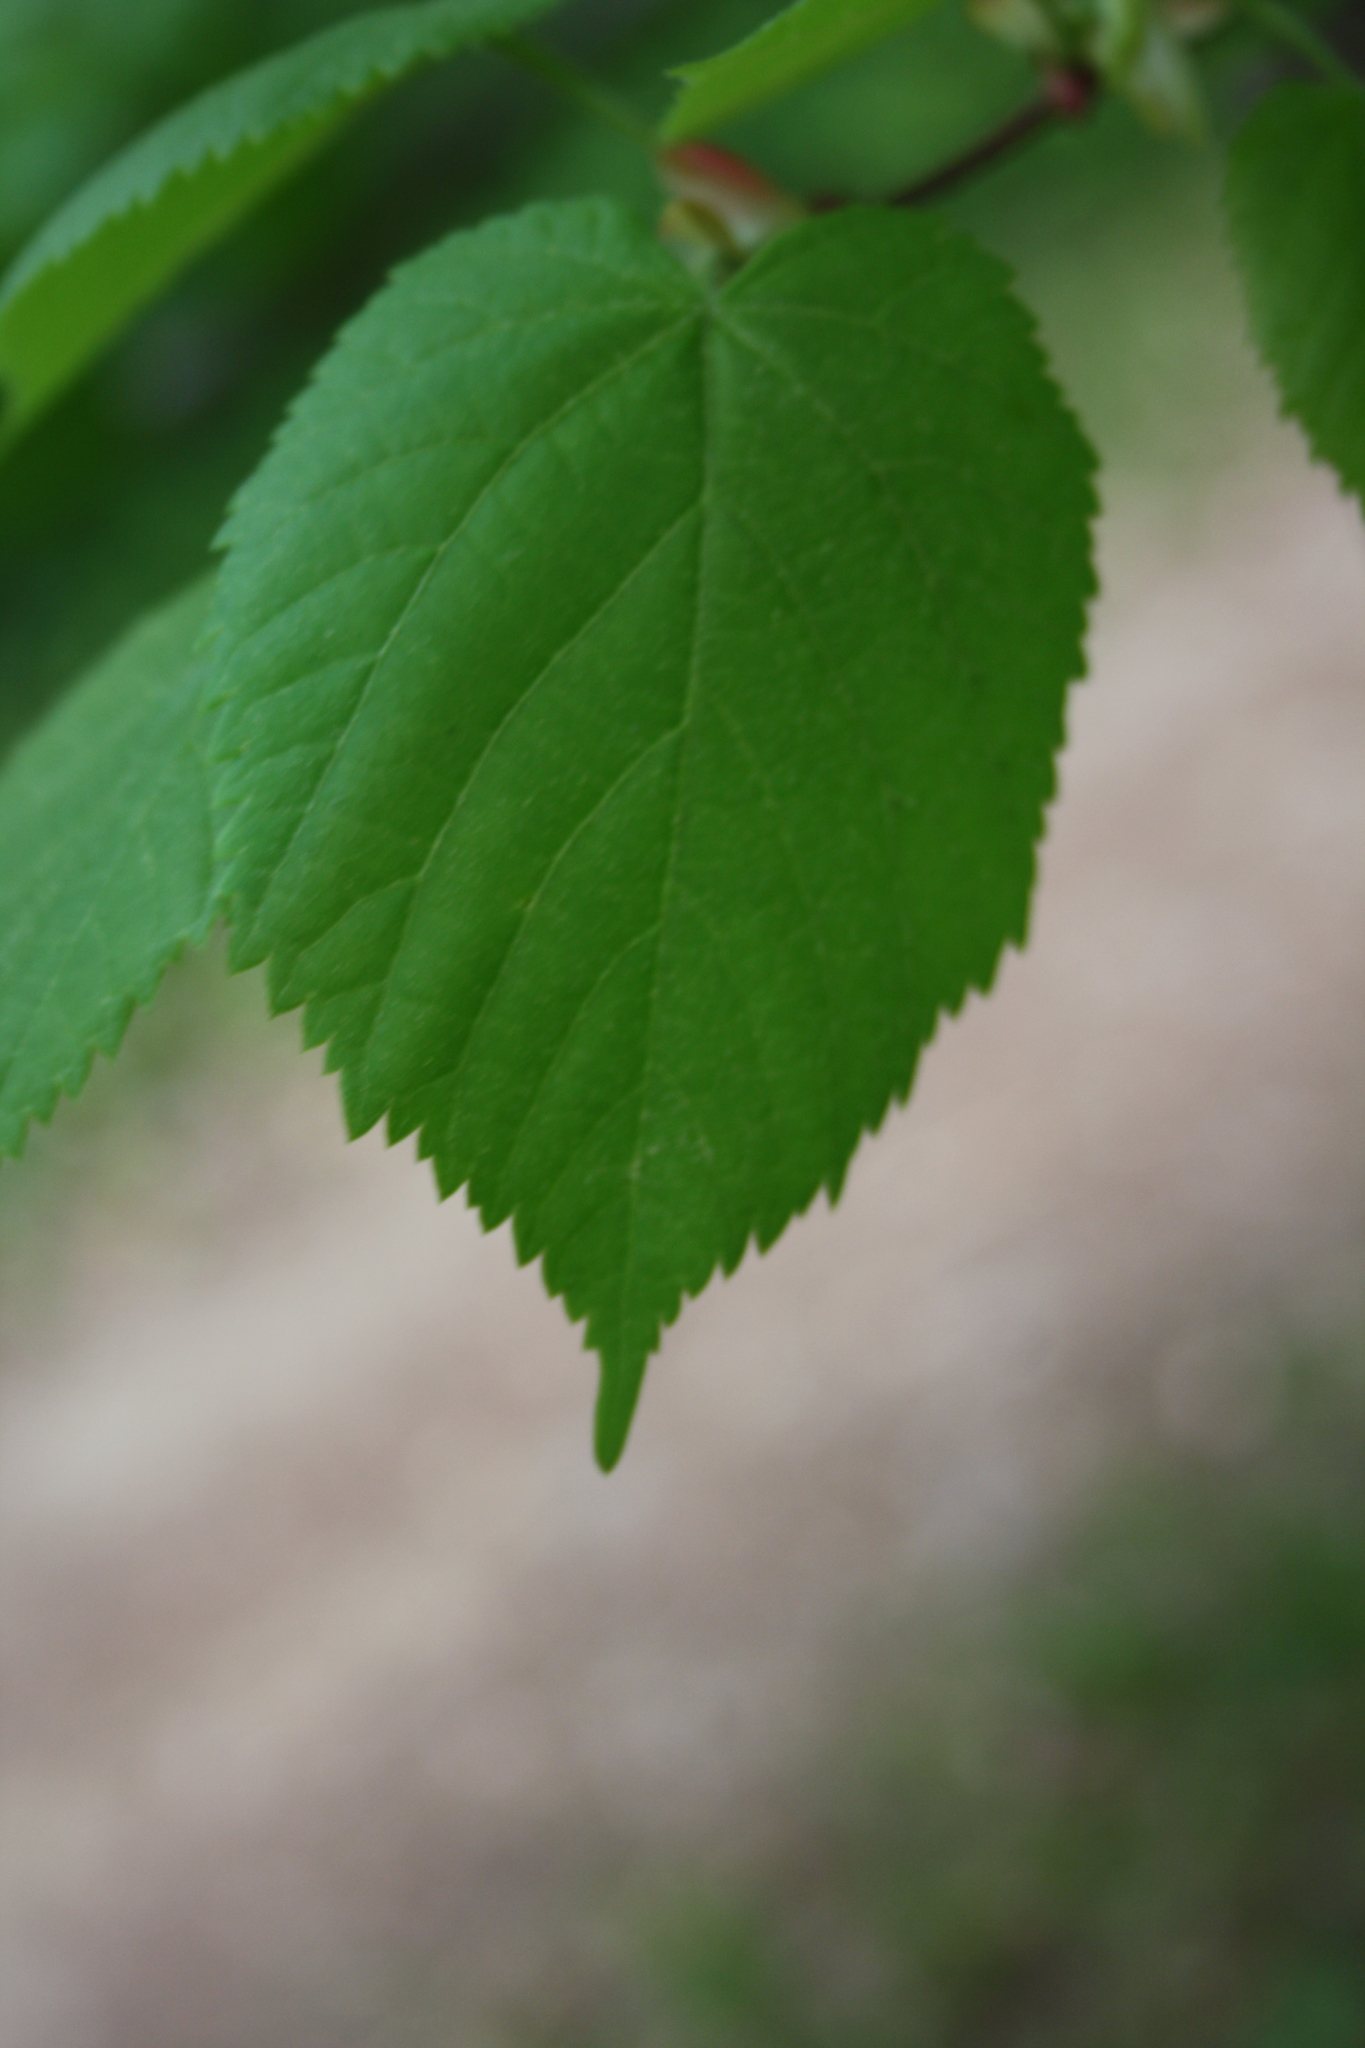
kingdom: Plantae
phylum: Tracheophyta
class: Magnoliopsida
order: Malvales
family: Malvaceae
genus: Tilia
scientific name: Tilia platyphyllos
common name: Large-leaved lime
